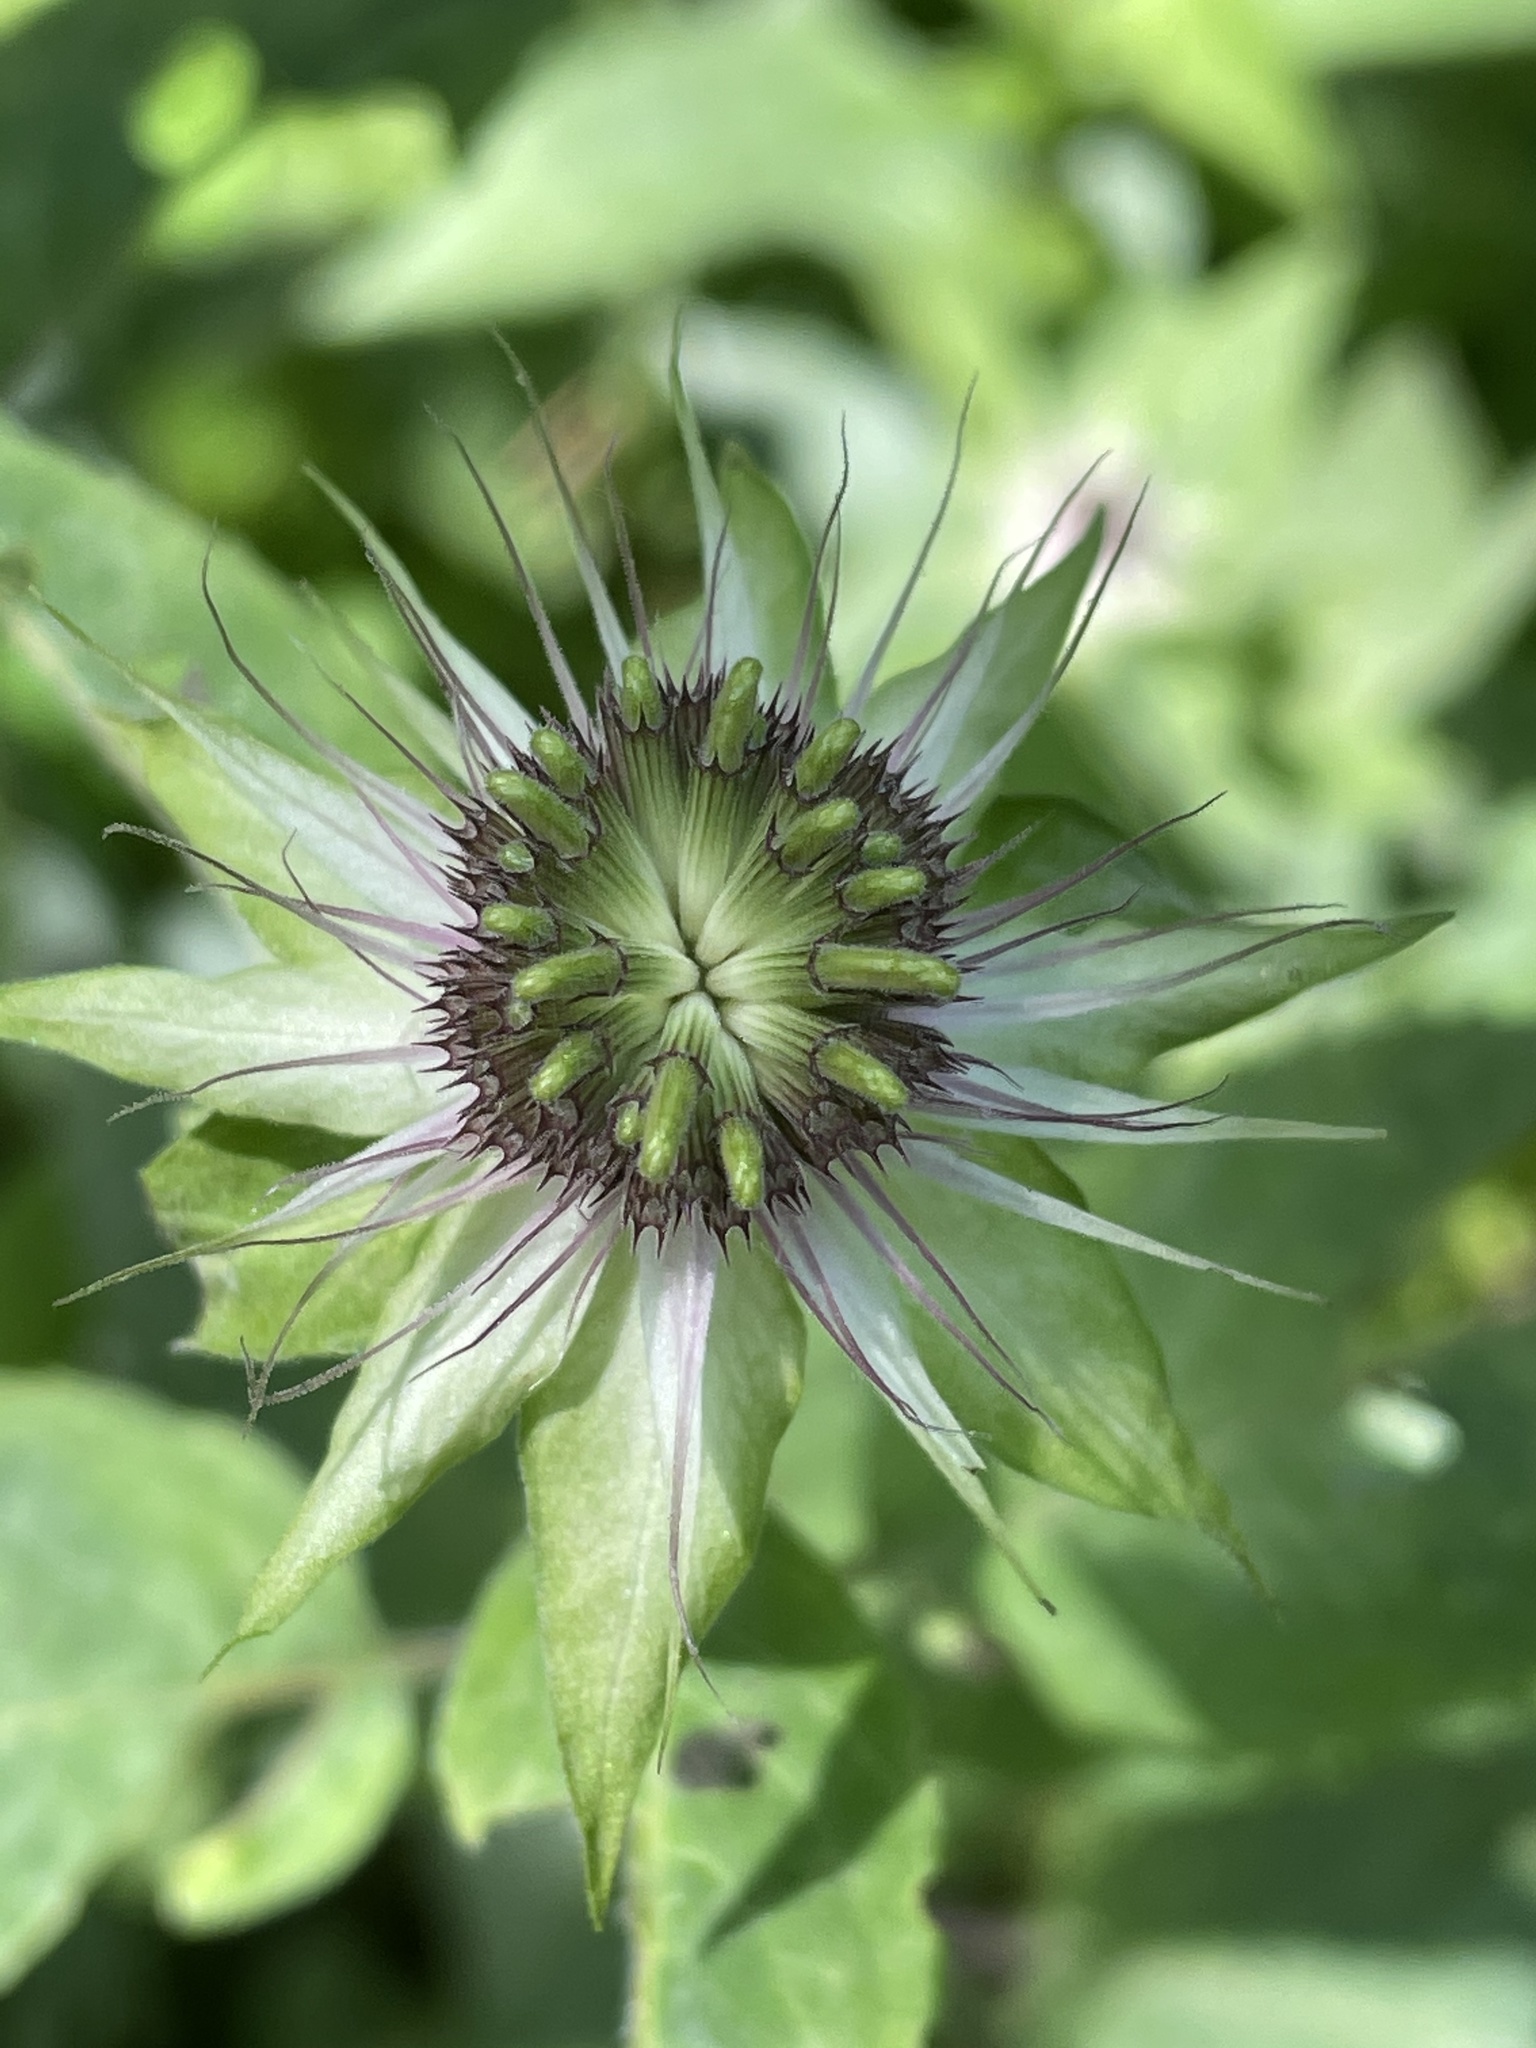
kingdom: Plantae
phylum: Tracheophyta
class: Magnoliopsida
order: Lamiales
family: Lamiaceae
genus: Monarda
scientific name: Monarda clinopodia
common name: Basil beebalm
